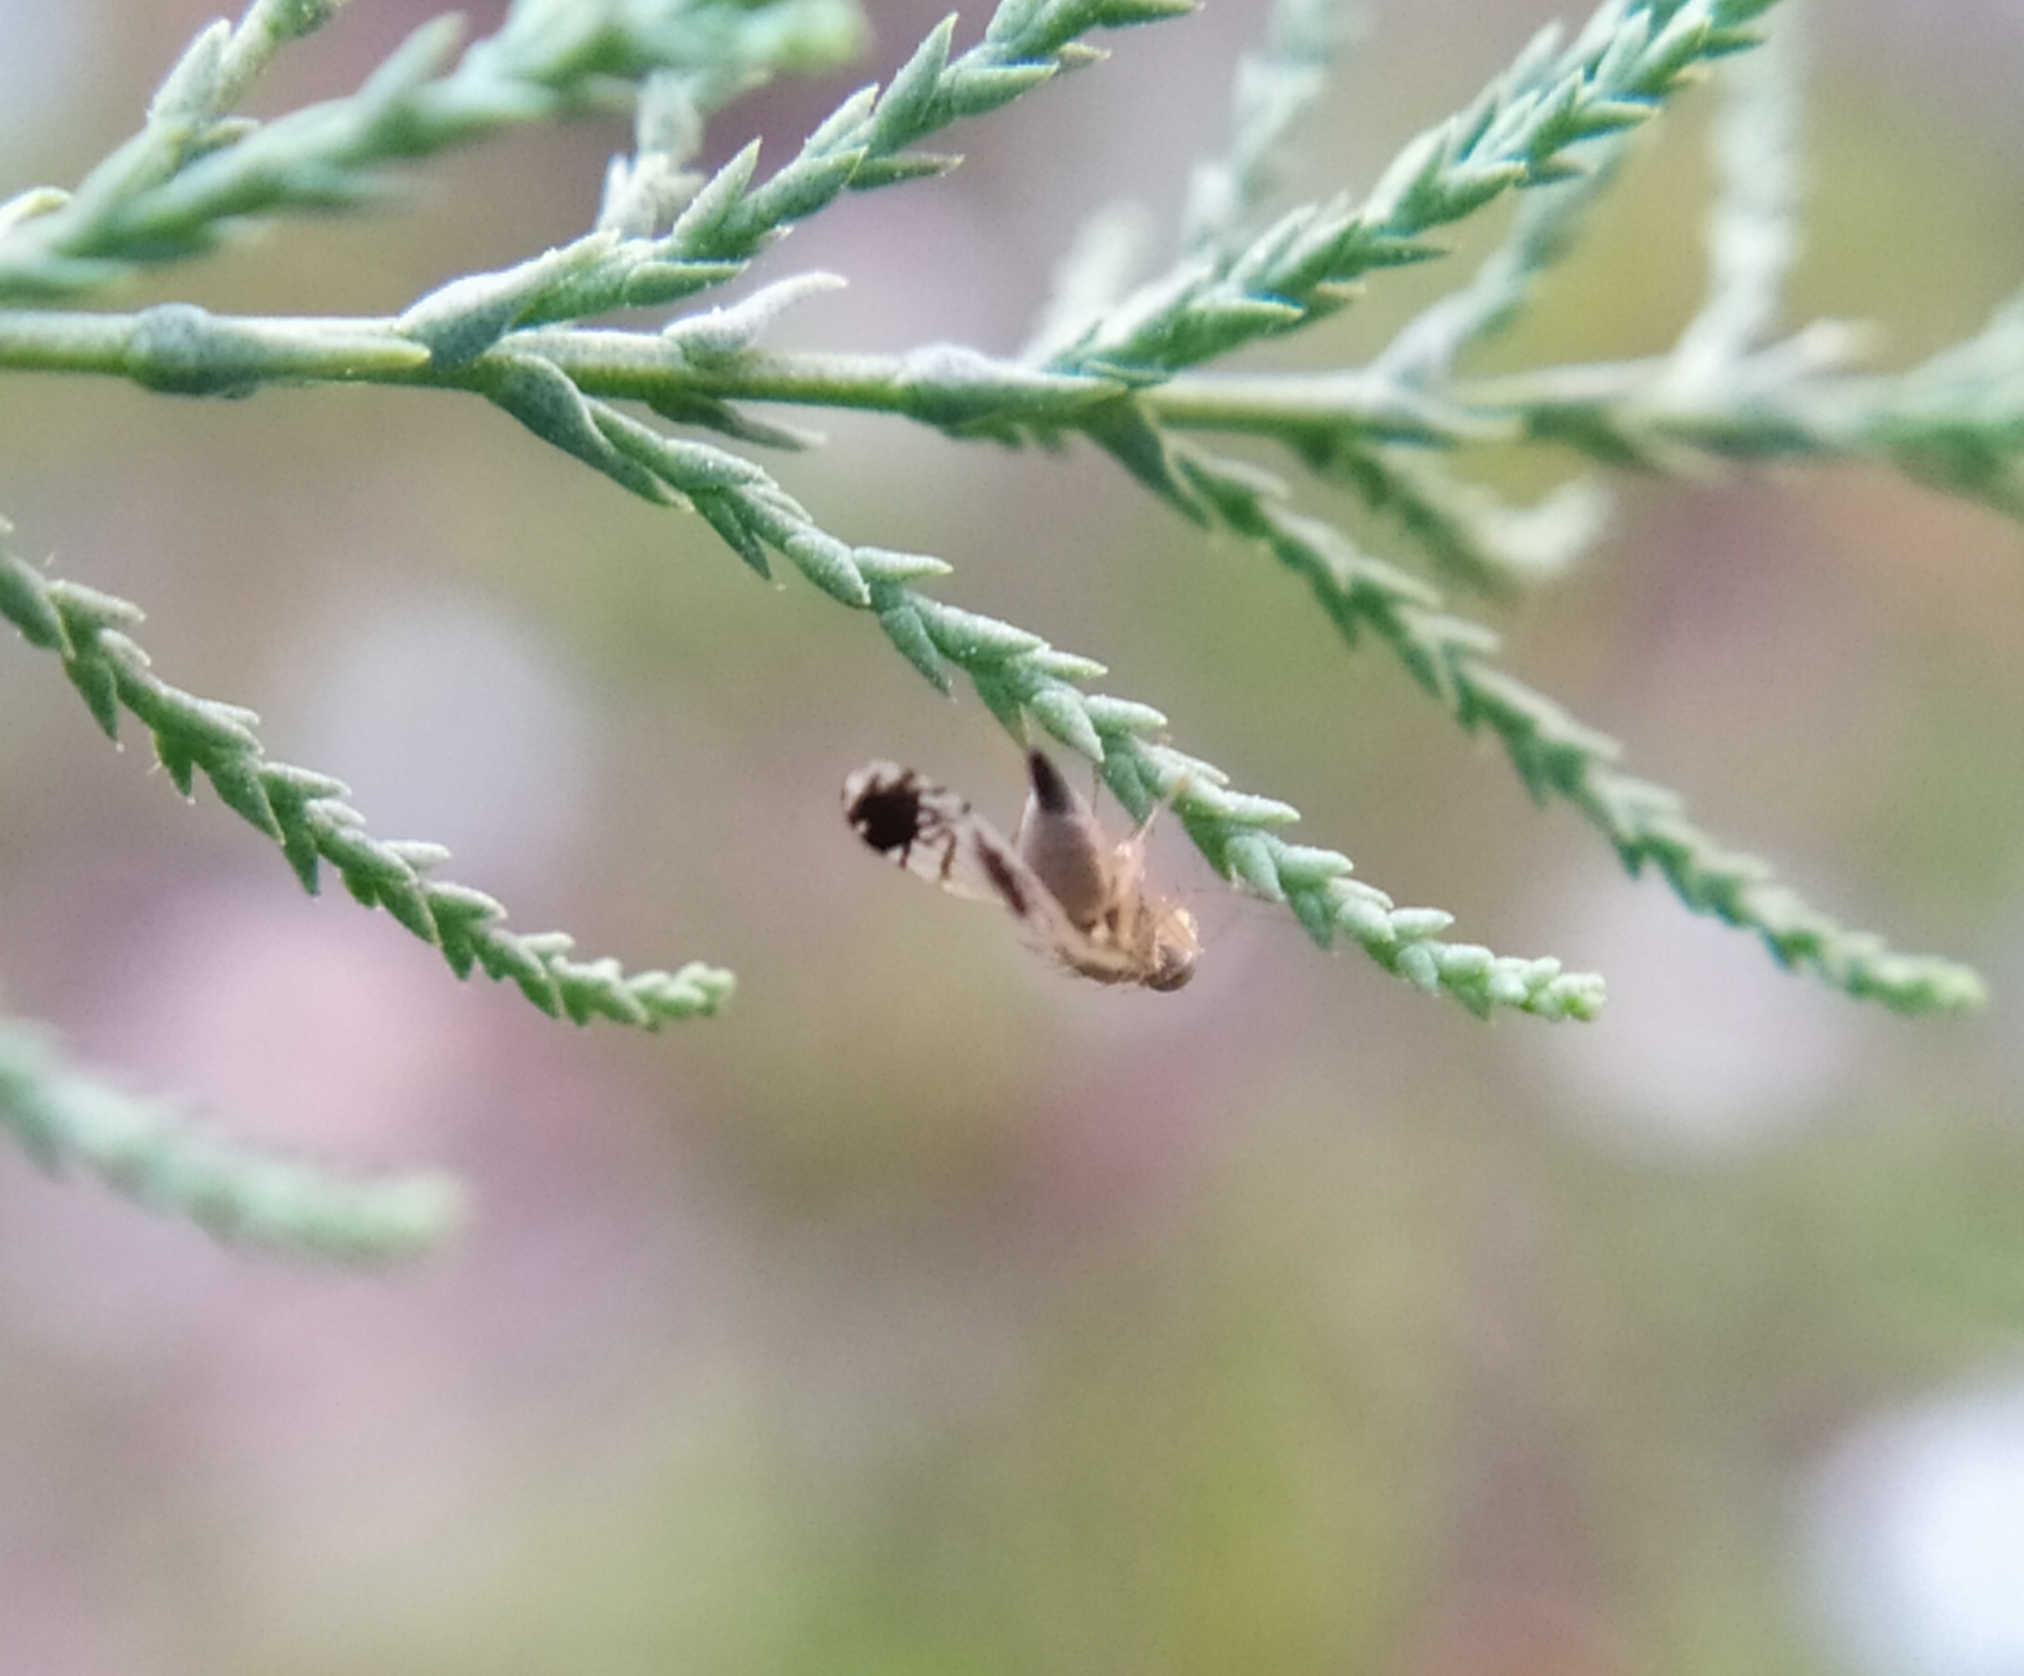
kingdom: Animalia
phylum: Arthropoda
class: Insecta
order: Diptera
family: Tephritidae
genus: Trupanea
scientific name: Trupanea amoena
